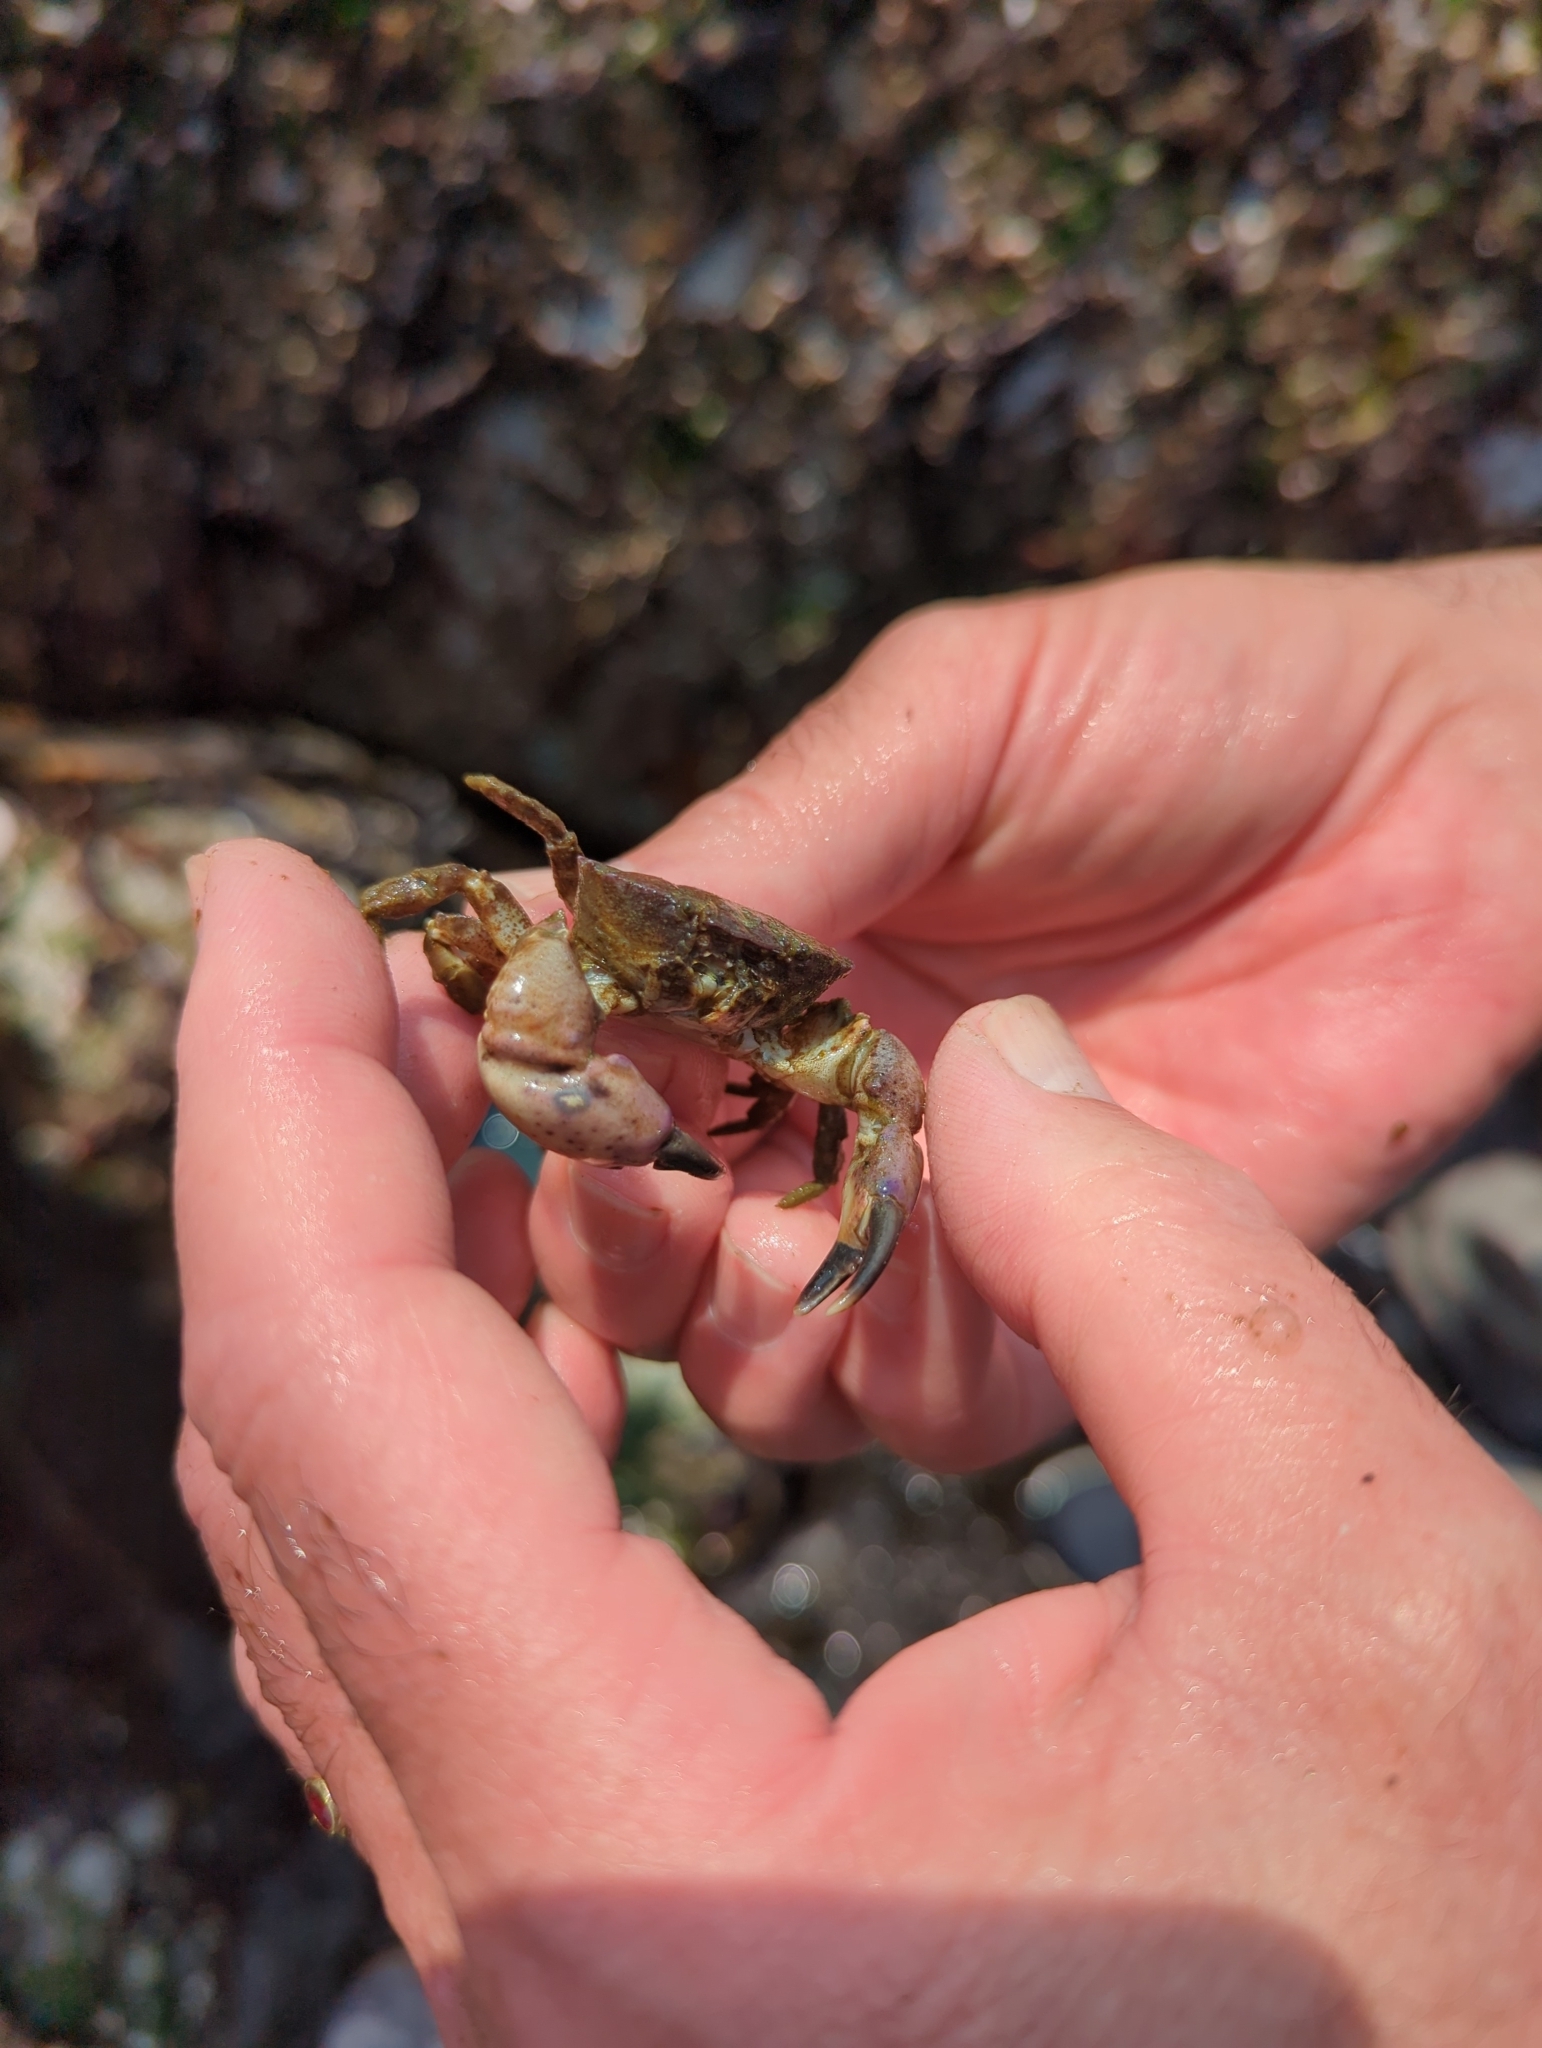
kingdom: Animalia
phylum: Arthropoda
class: Malacostraca
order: Decapoda
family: Panopeidae
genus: Lophopanopeus
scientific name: Lophopanopeus bellus
